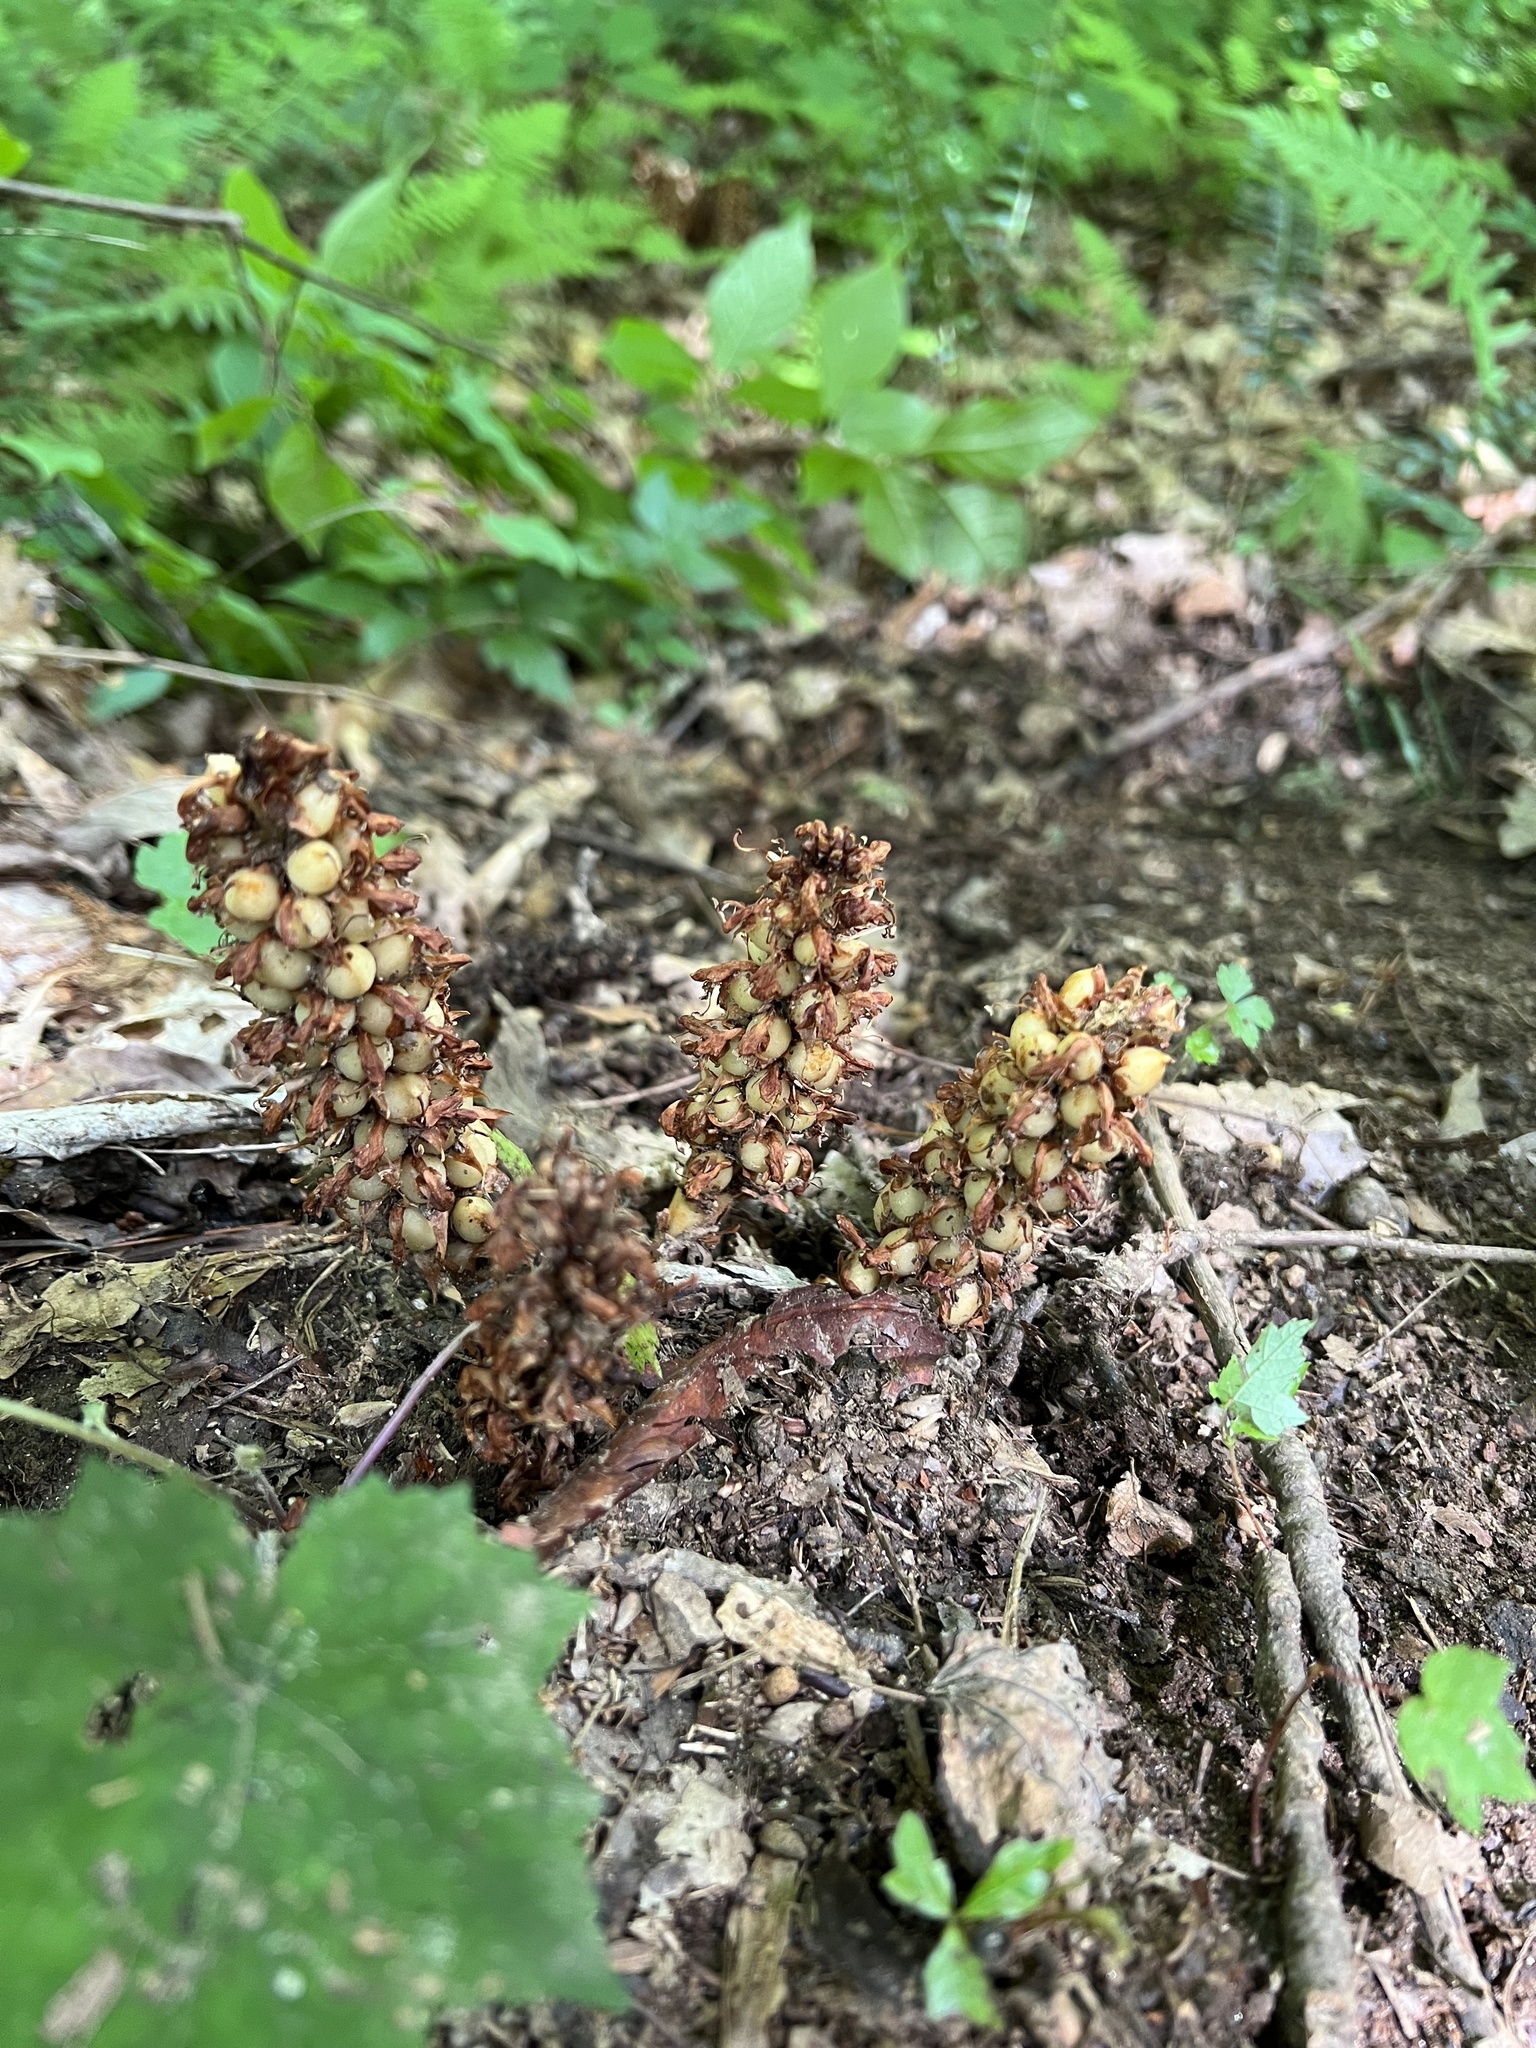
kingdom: Plantae
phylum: Tracheophyta
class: Magnoliopsida
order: Lamiales
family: Orobanchaceae
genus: Conopholis
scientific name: Conopholis americana
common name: American cancer-root
